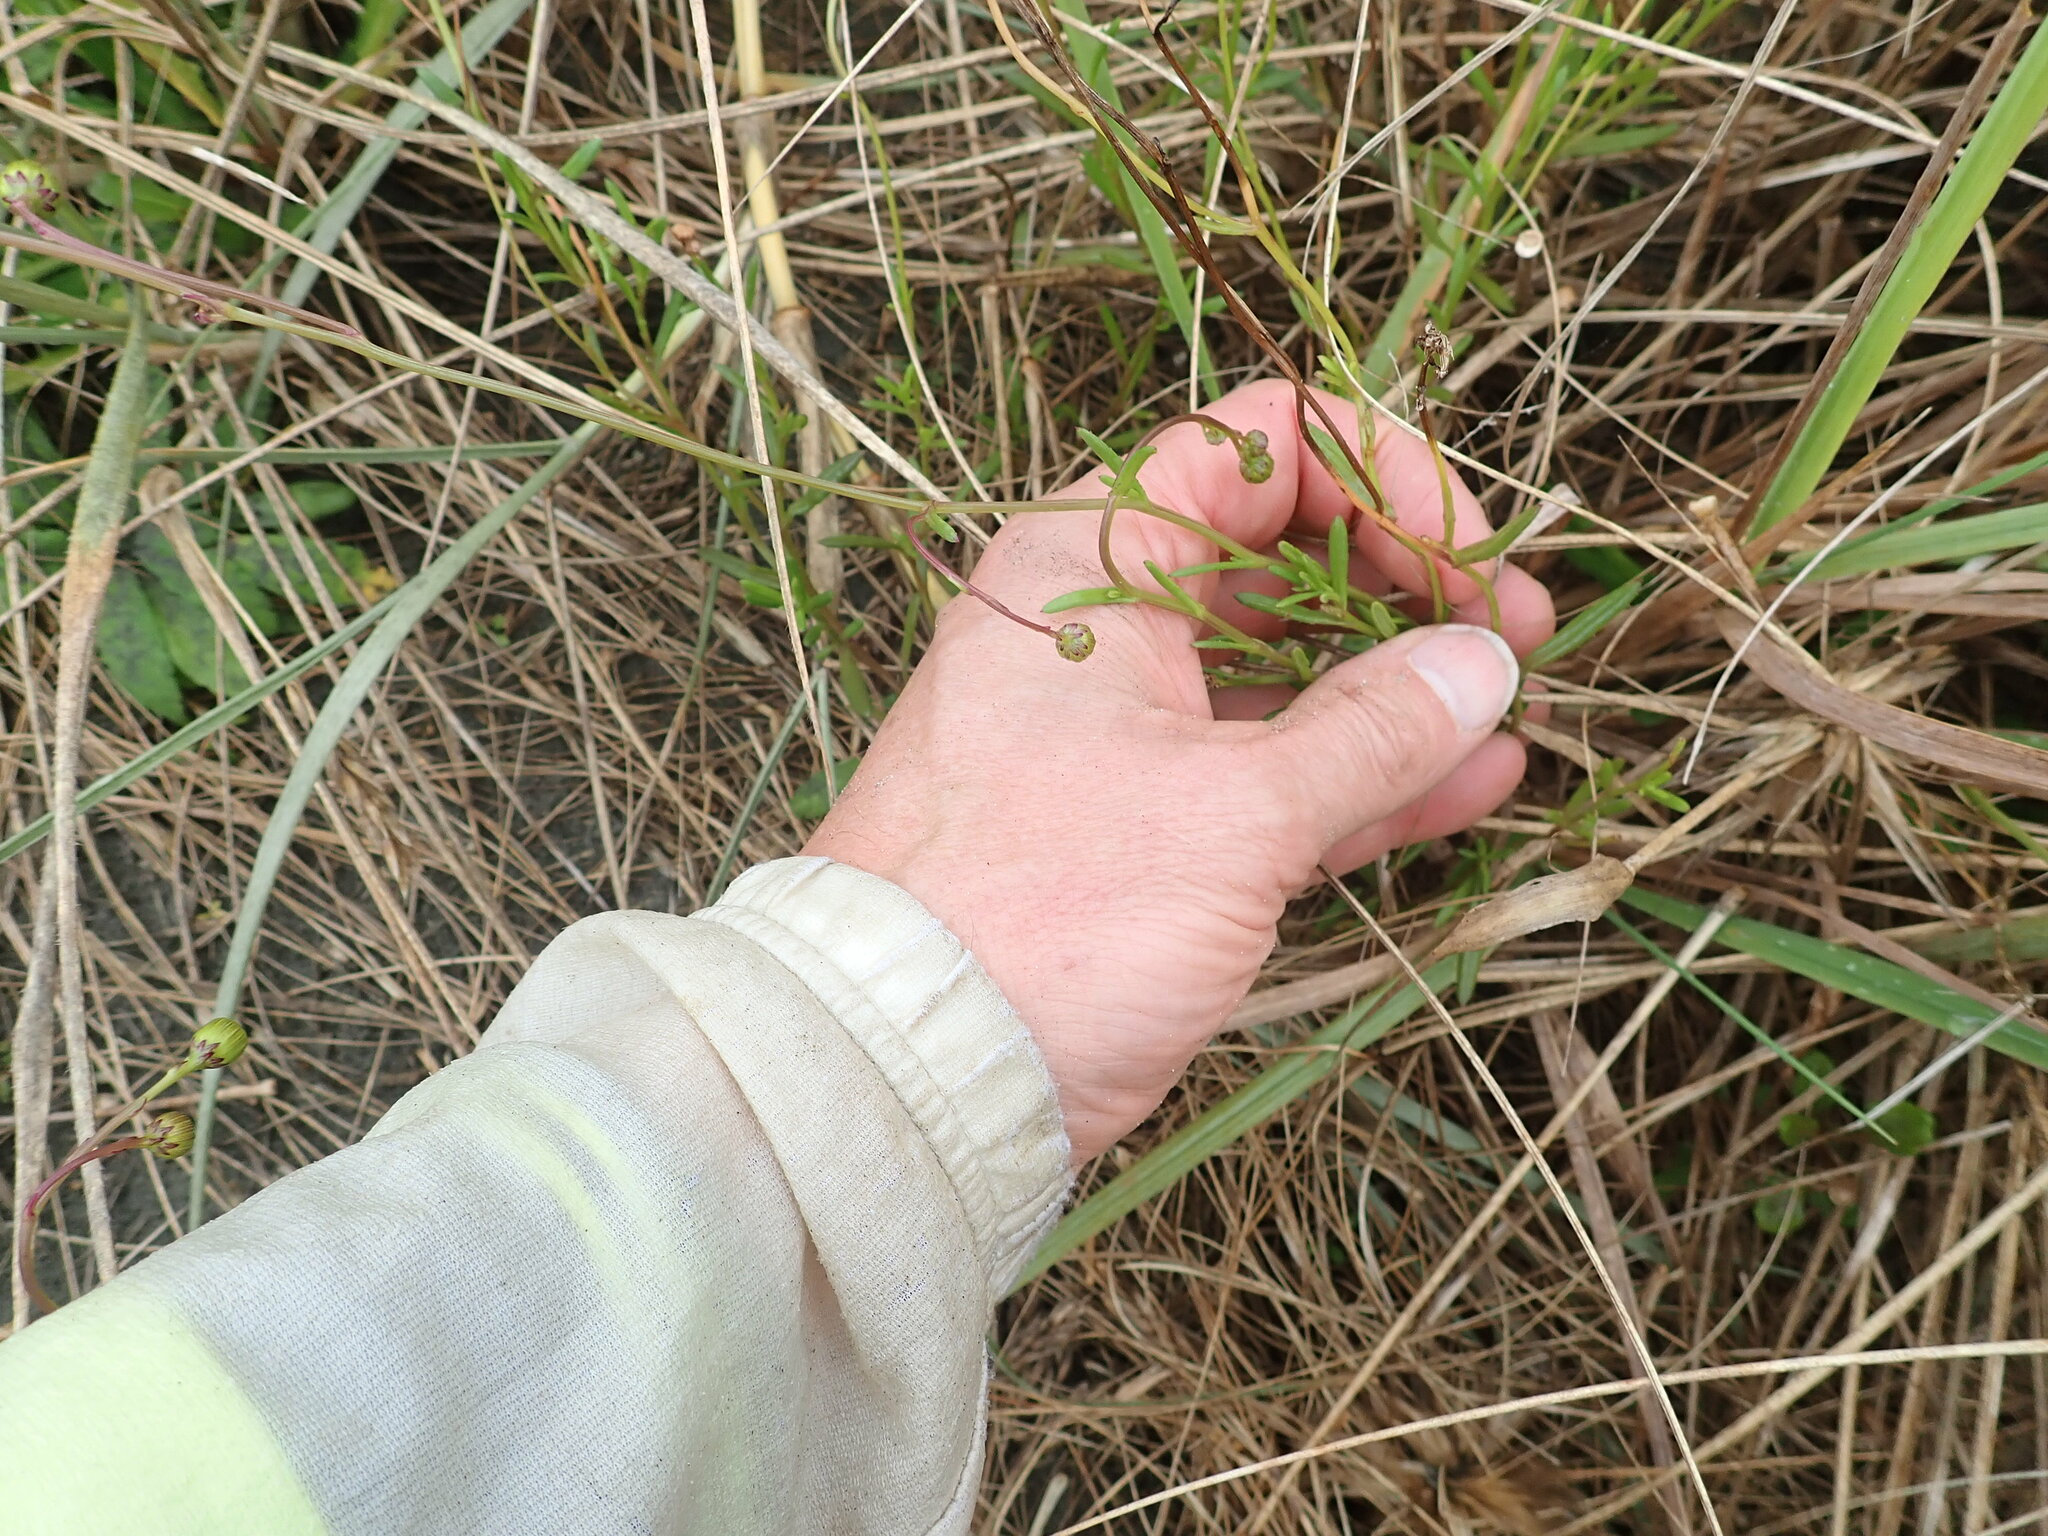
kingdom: Plantae
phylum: Tracheophyta
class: Magnoliopsida
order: Asterales
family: Asteraceae
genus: Senecio
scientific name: Senecio skirrhodon
